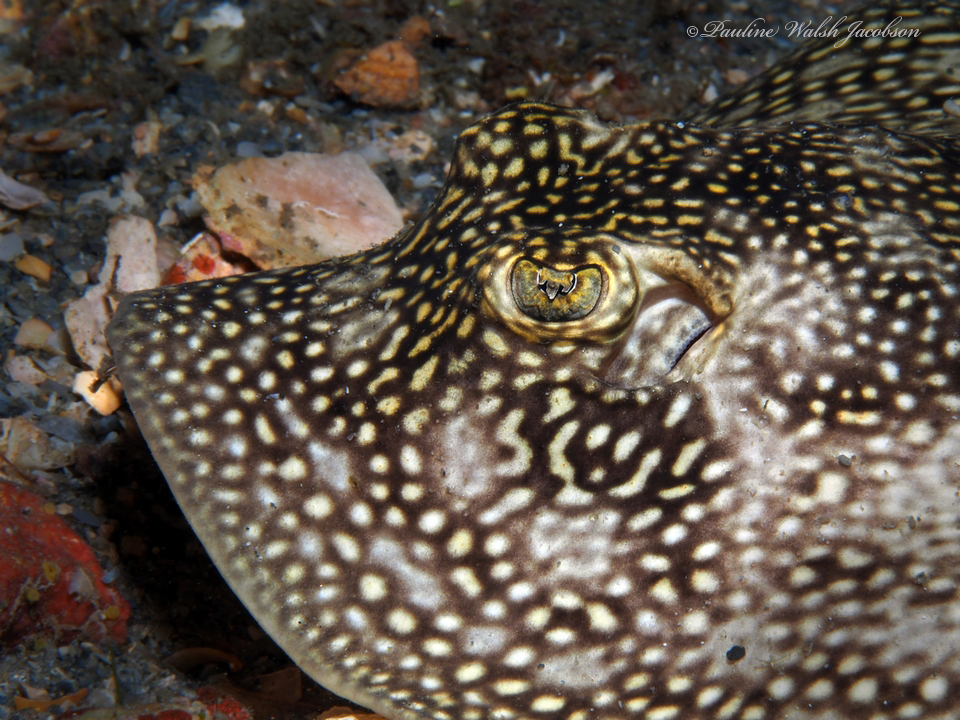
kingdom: Animalia
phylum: Chordata
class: Elasmobranchii
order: Myliobatiformes
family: Urotrygonidae
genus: Urobatis
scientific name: Urobatis jamaicensis
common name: Yellow stingray
